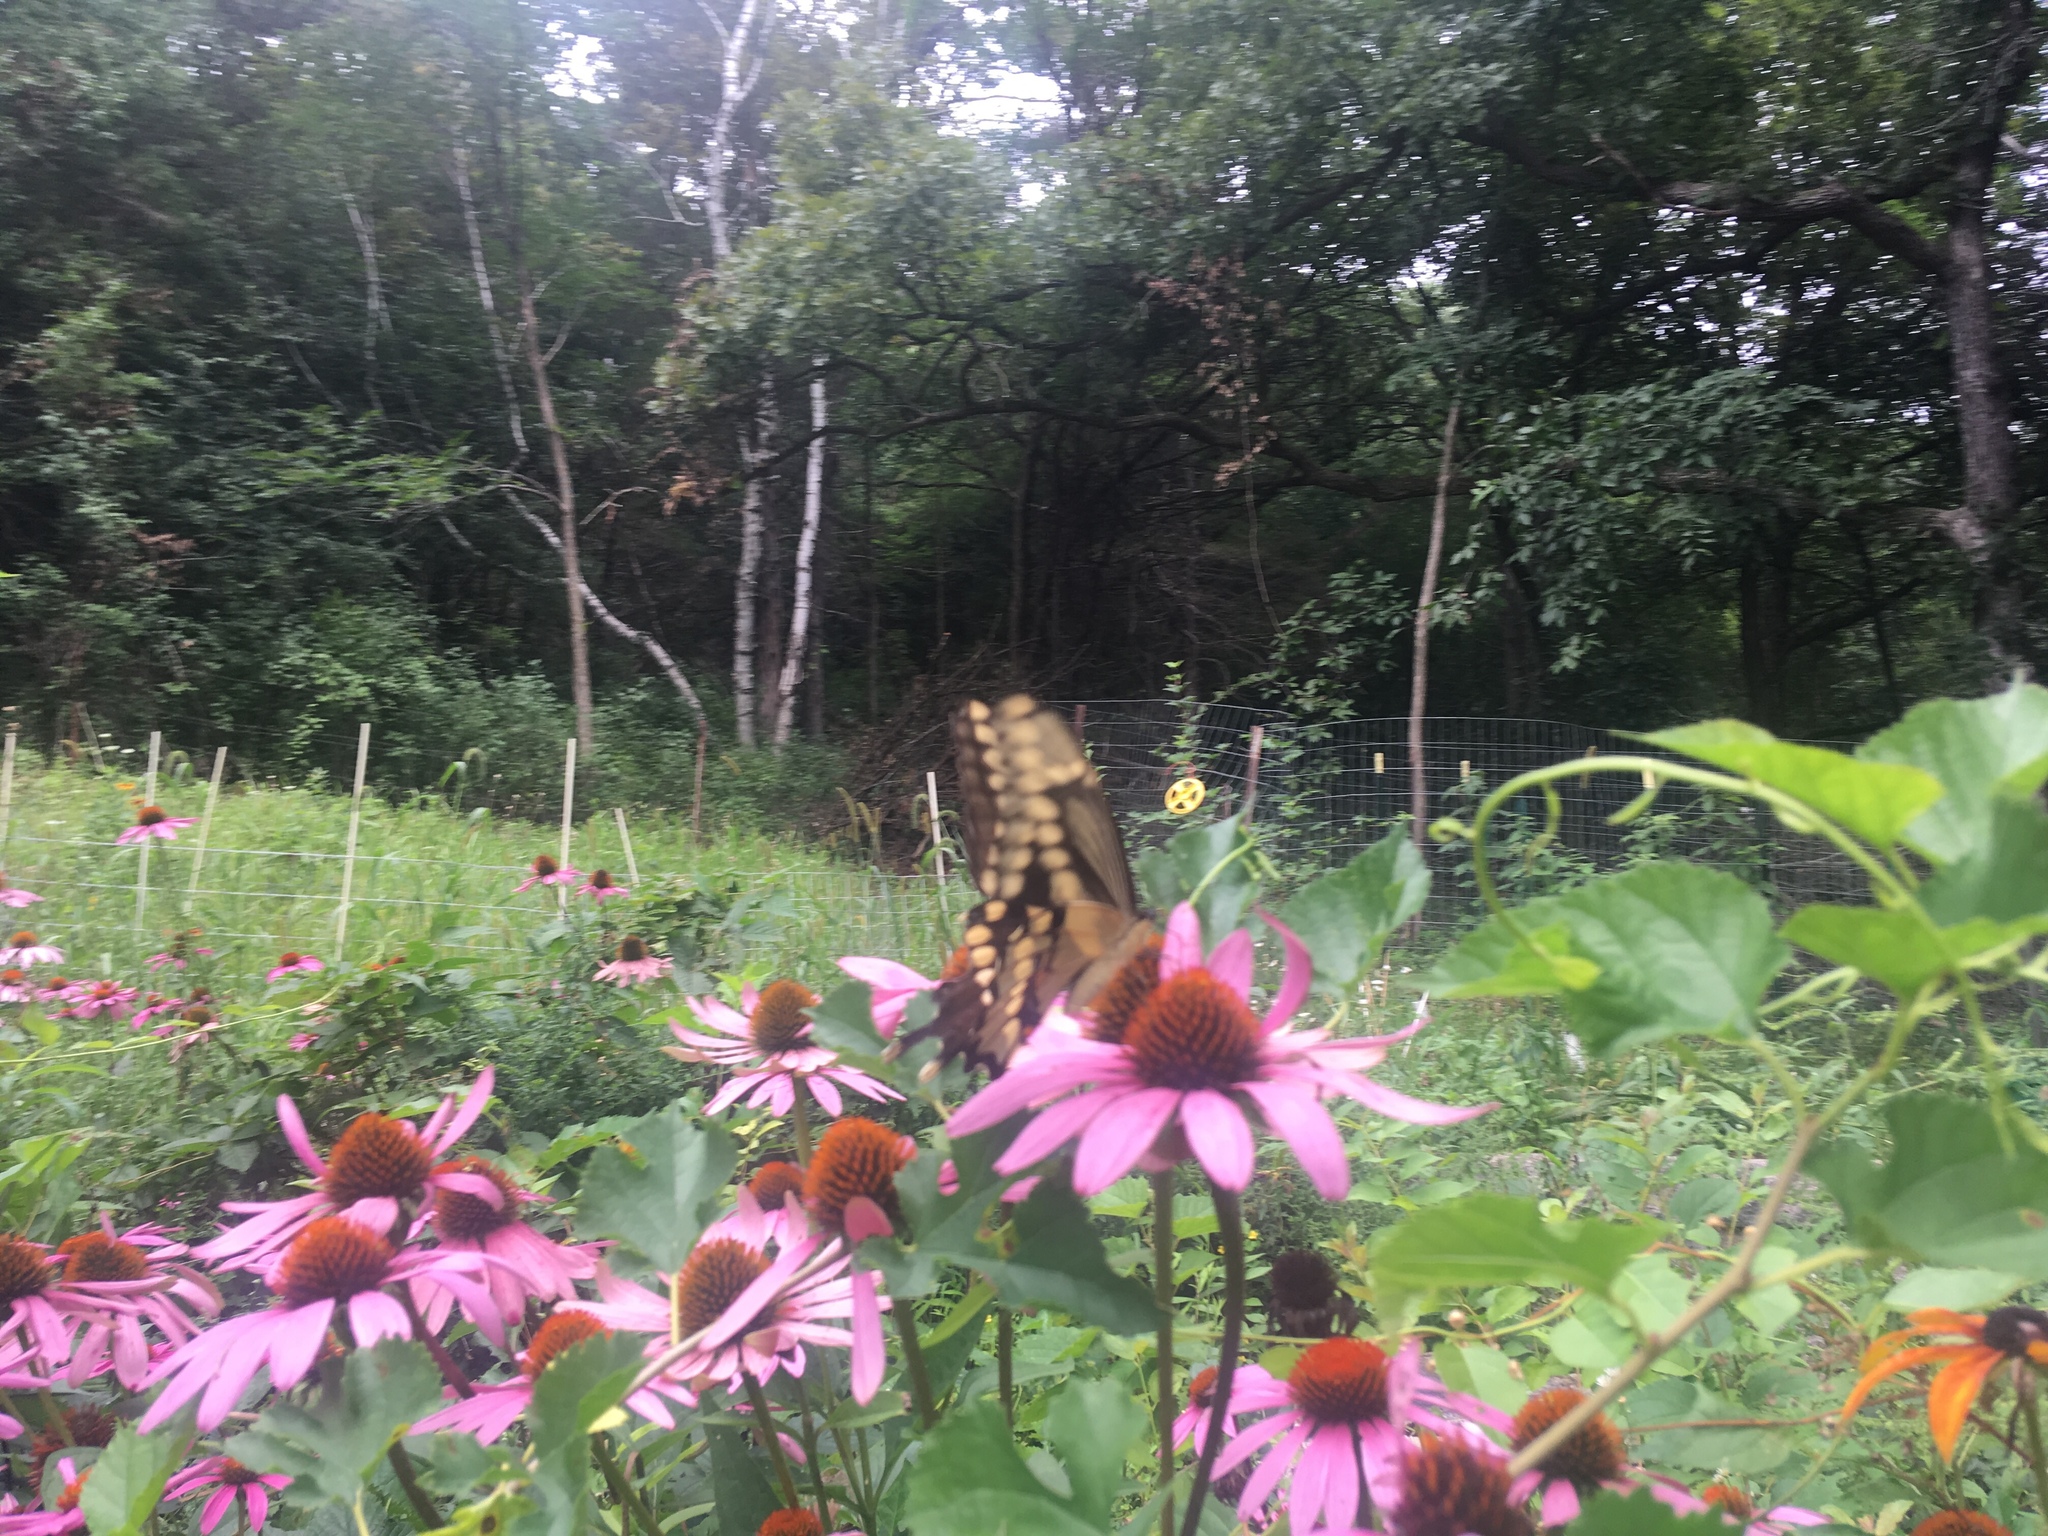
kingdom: Animalia
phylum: Arthropoda
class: Insecta
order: Lepidoptera
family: Papilionidae
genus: Papilio
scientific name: Papilio cresphontes
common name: Giant swallowtail
